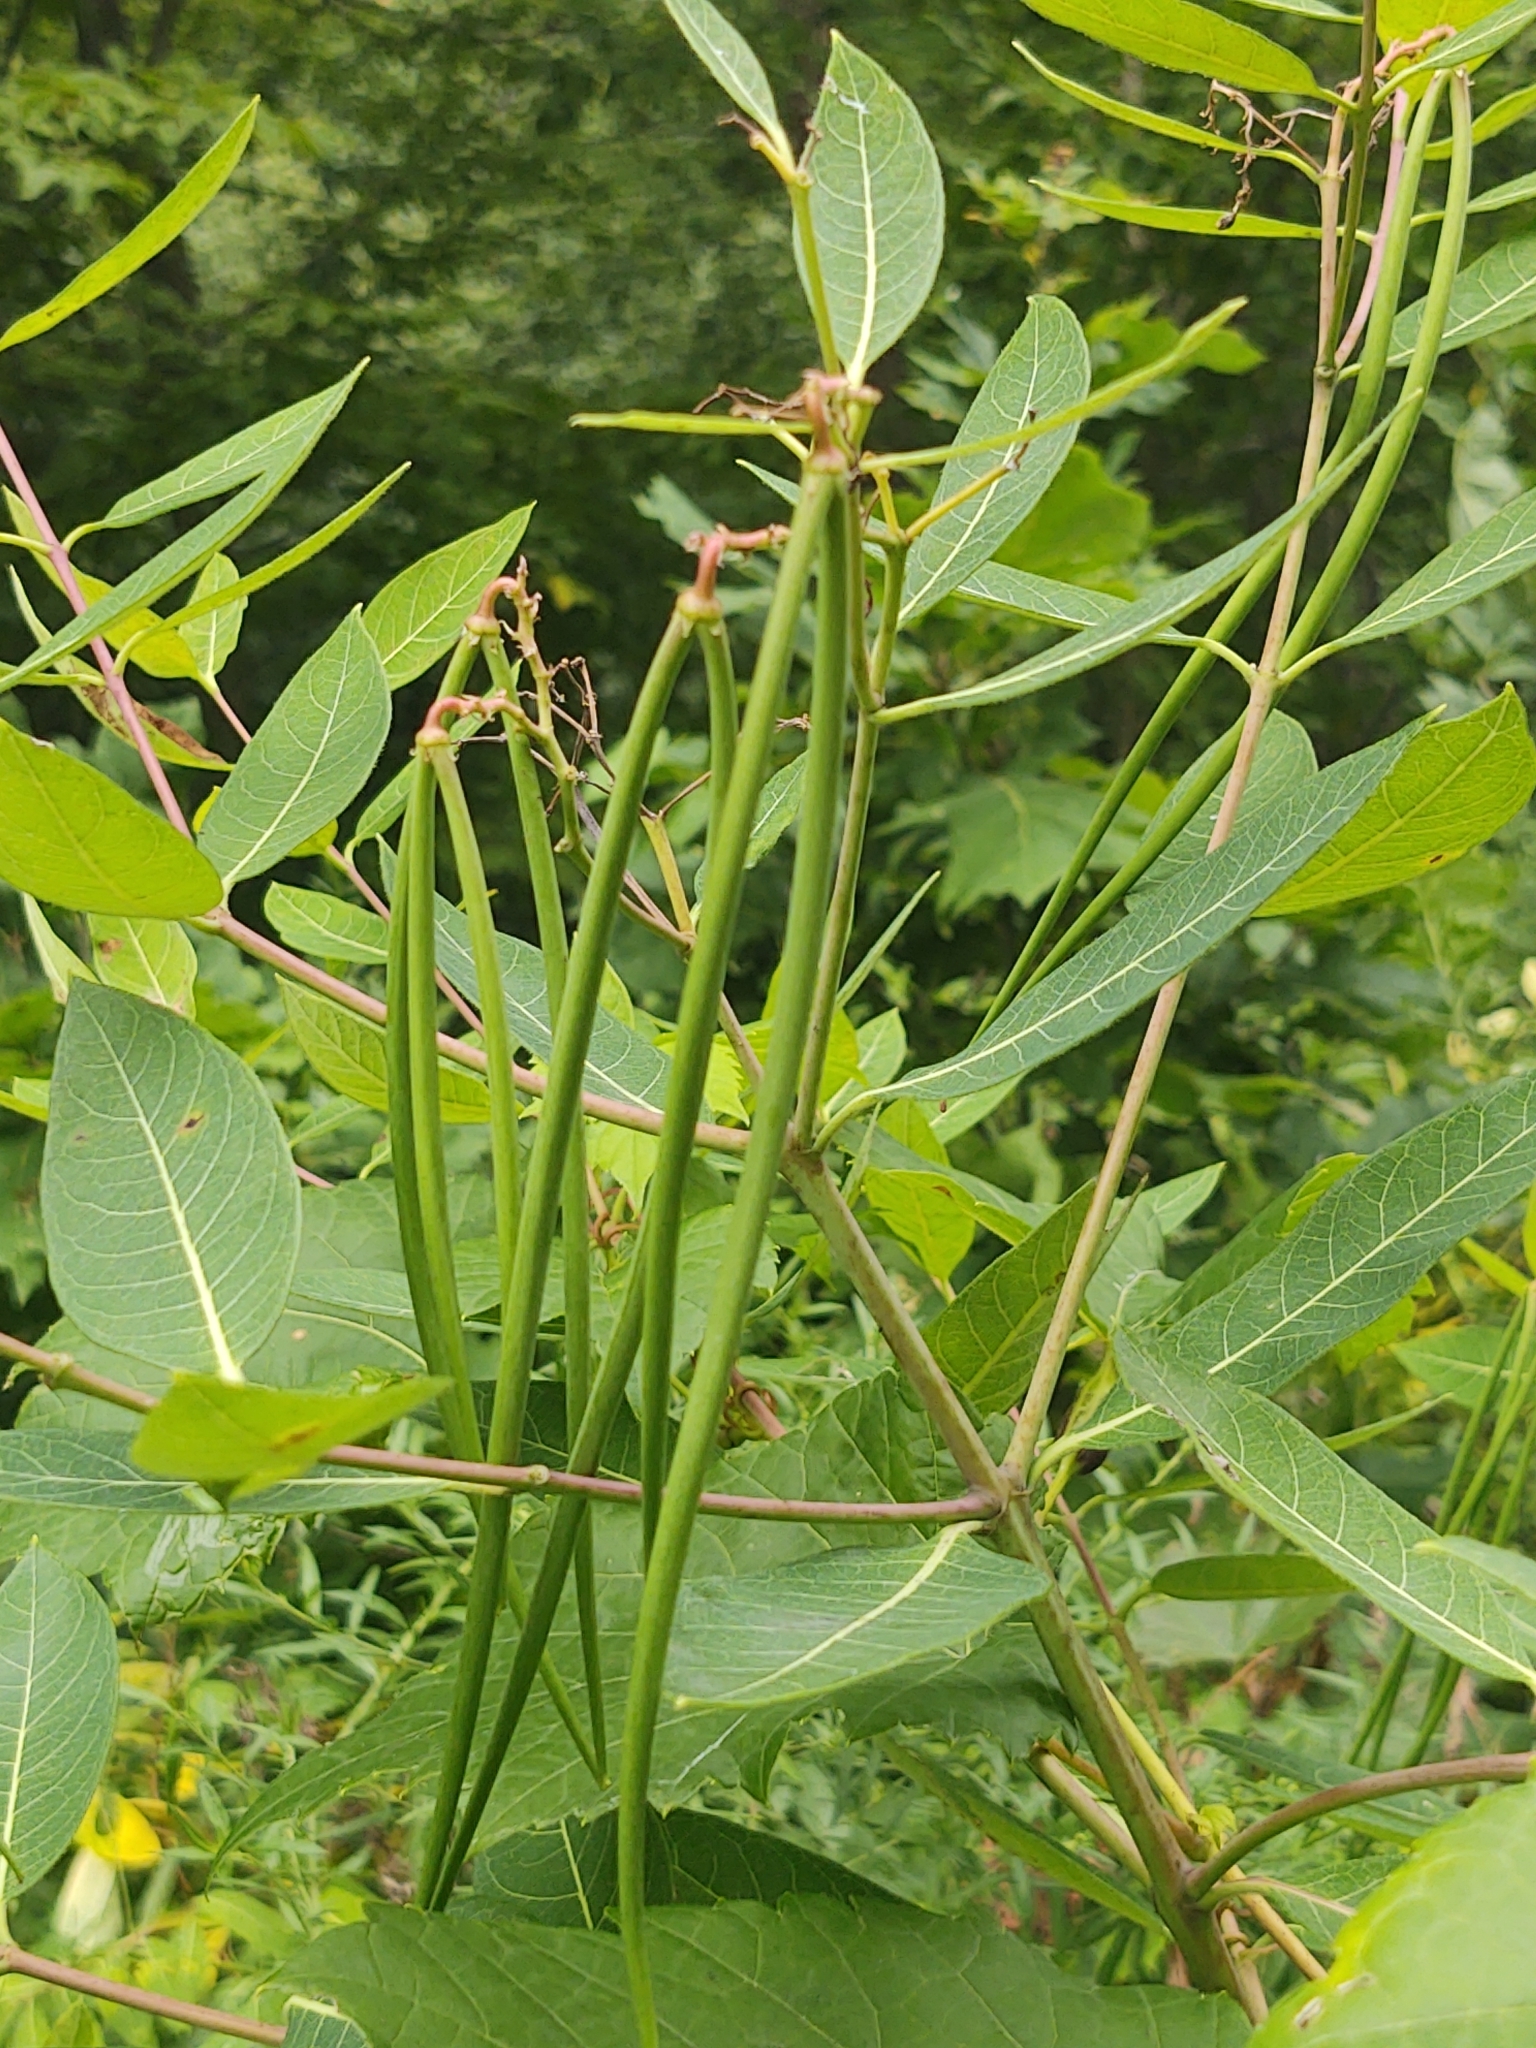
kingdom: Plantae
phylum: Tracheophyta
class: Magnoliopsida
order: Gentianales
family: Apocynaceae
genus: Apocynum
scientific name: Apocynum androsaemifolium
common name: Spreading dogbane
